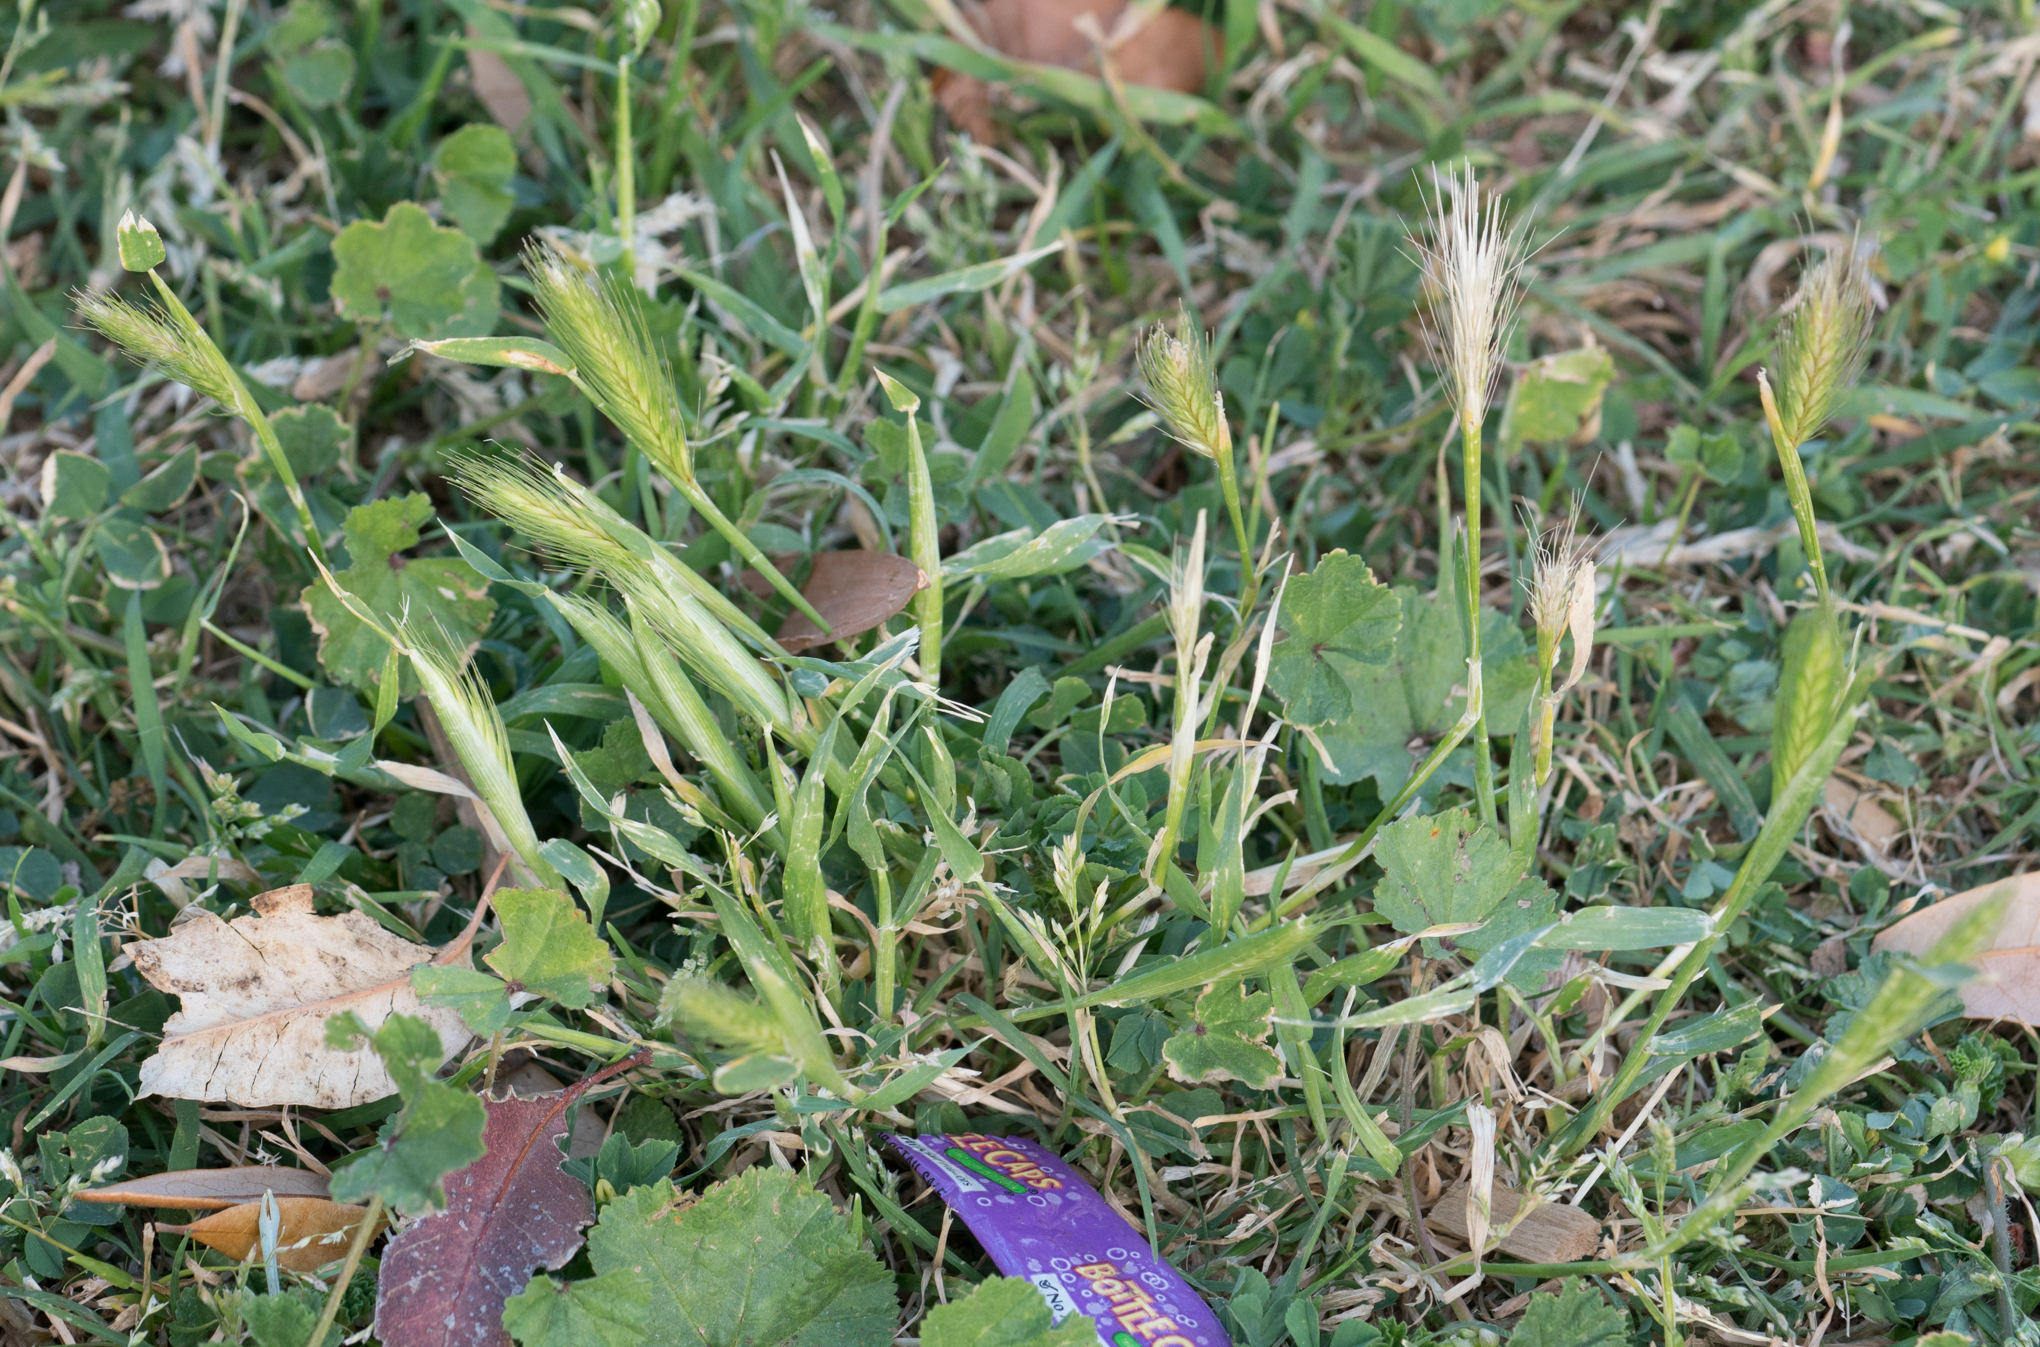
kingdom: Plantae
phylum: Tracheophyta
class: Liliopsida
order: Poales
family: Poaceae
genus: Hordeum
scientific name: Hordeum murinum
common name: Wall barley
